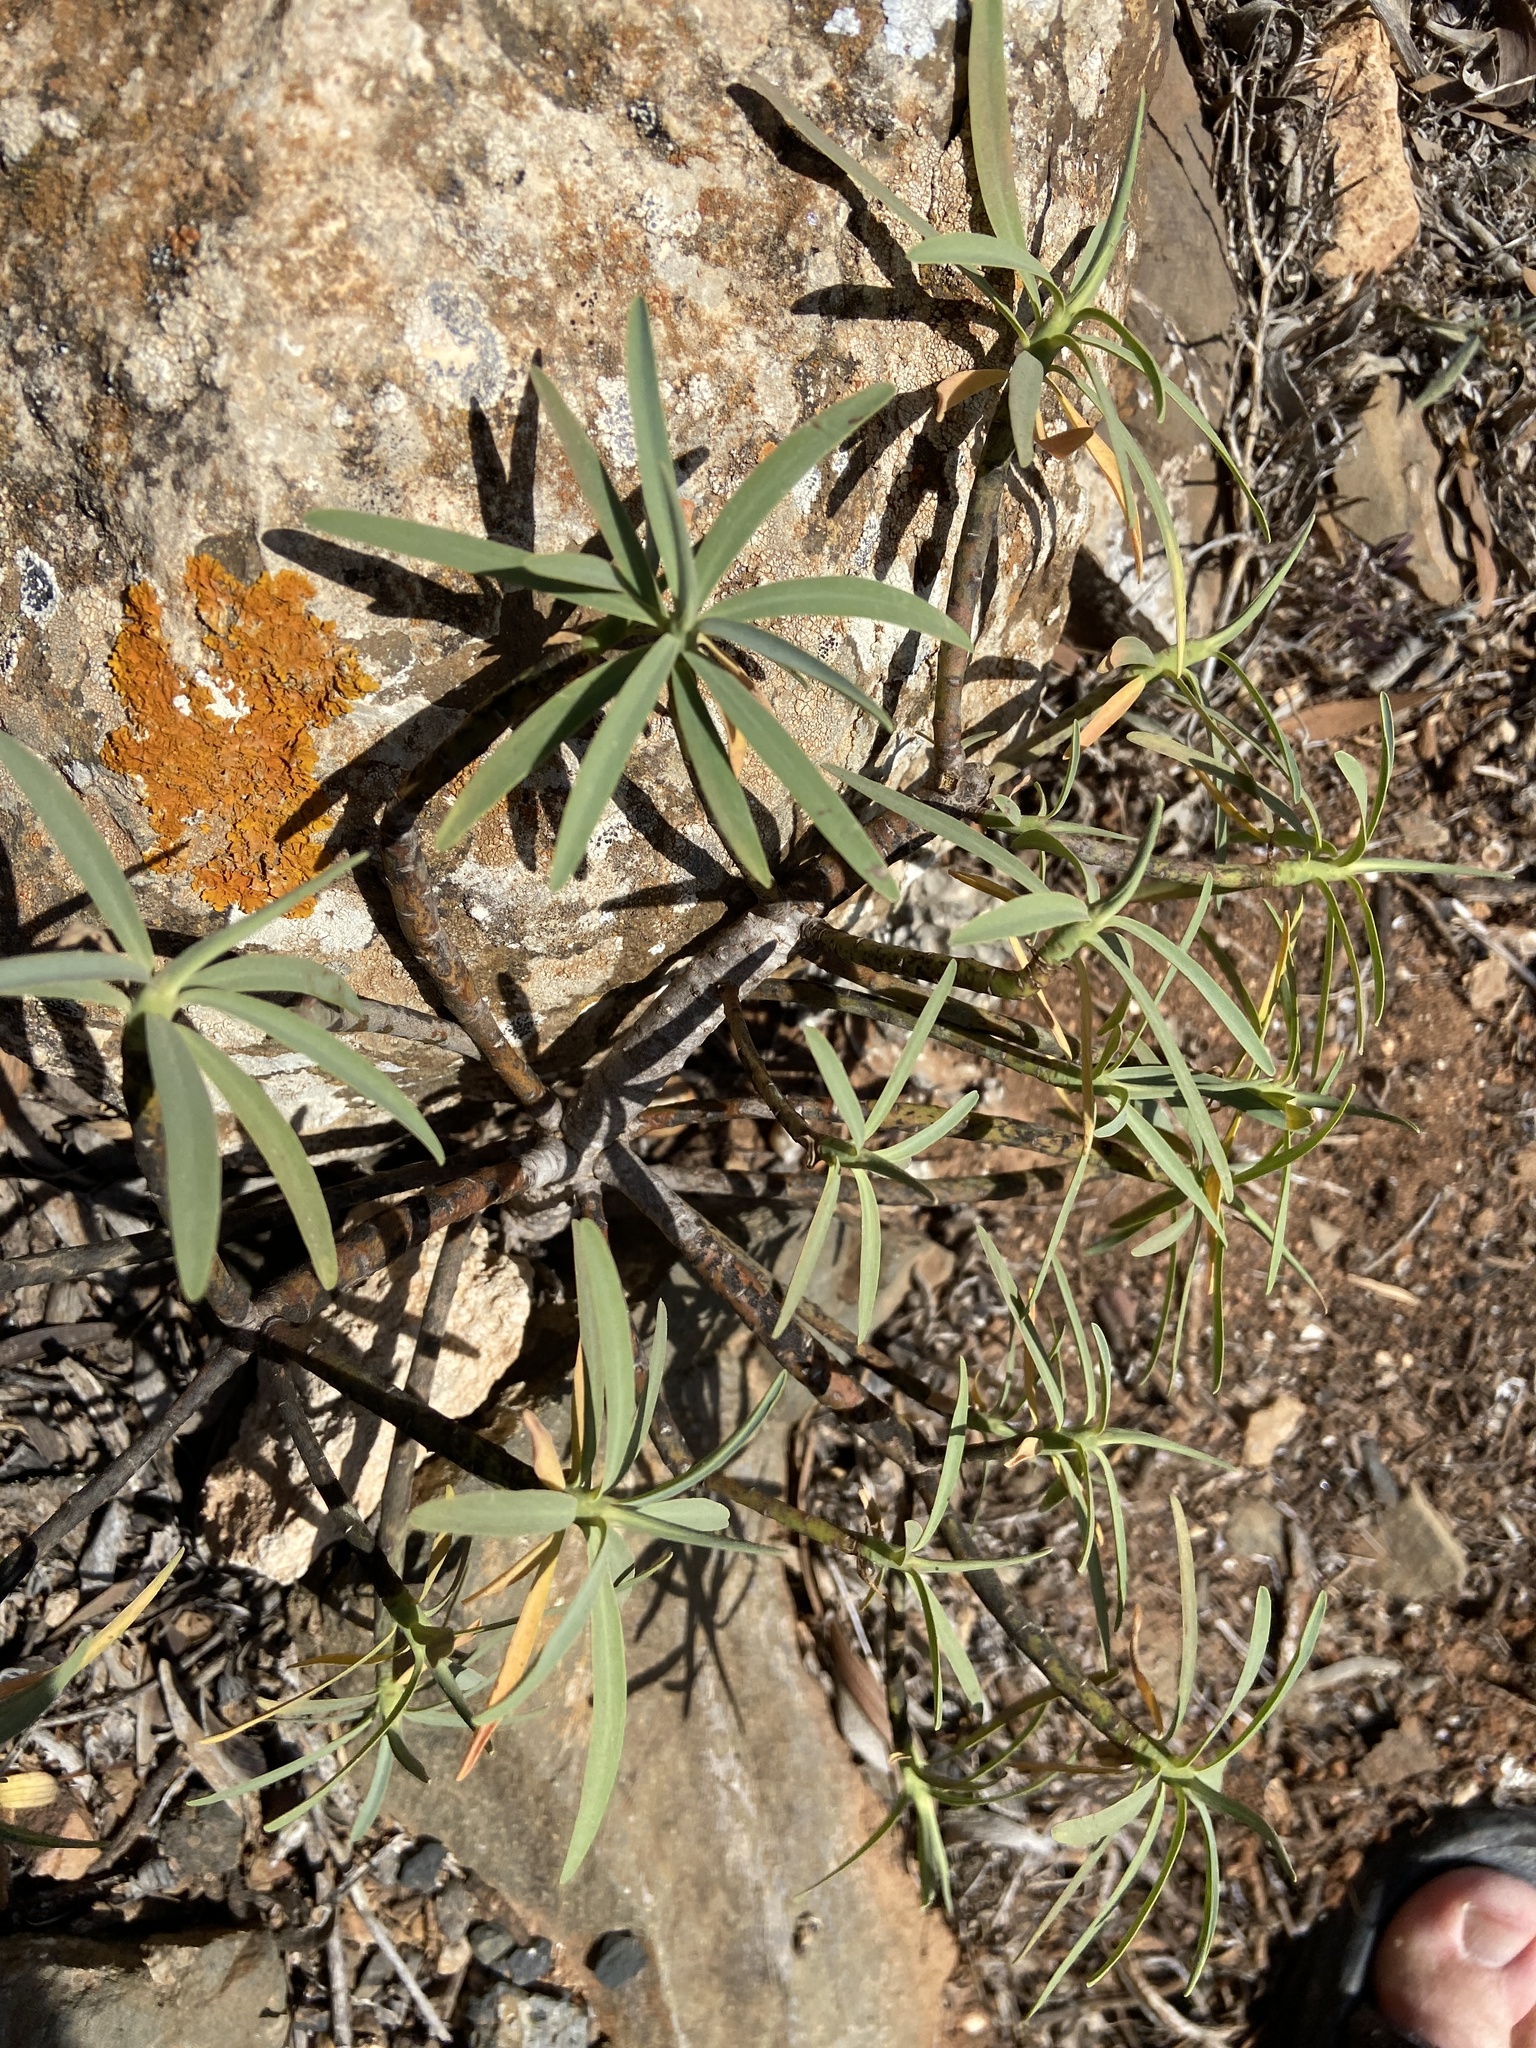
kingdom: Plantae
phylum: Tracheophyta
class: Magnoliopsida
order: Malpighiales
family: Euphorbiaceae
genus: Euphorbia
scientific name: Euphorbia regis-jubae
